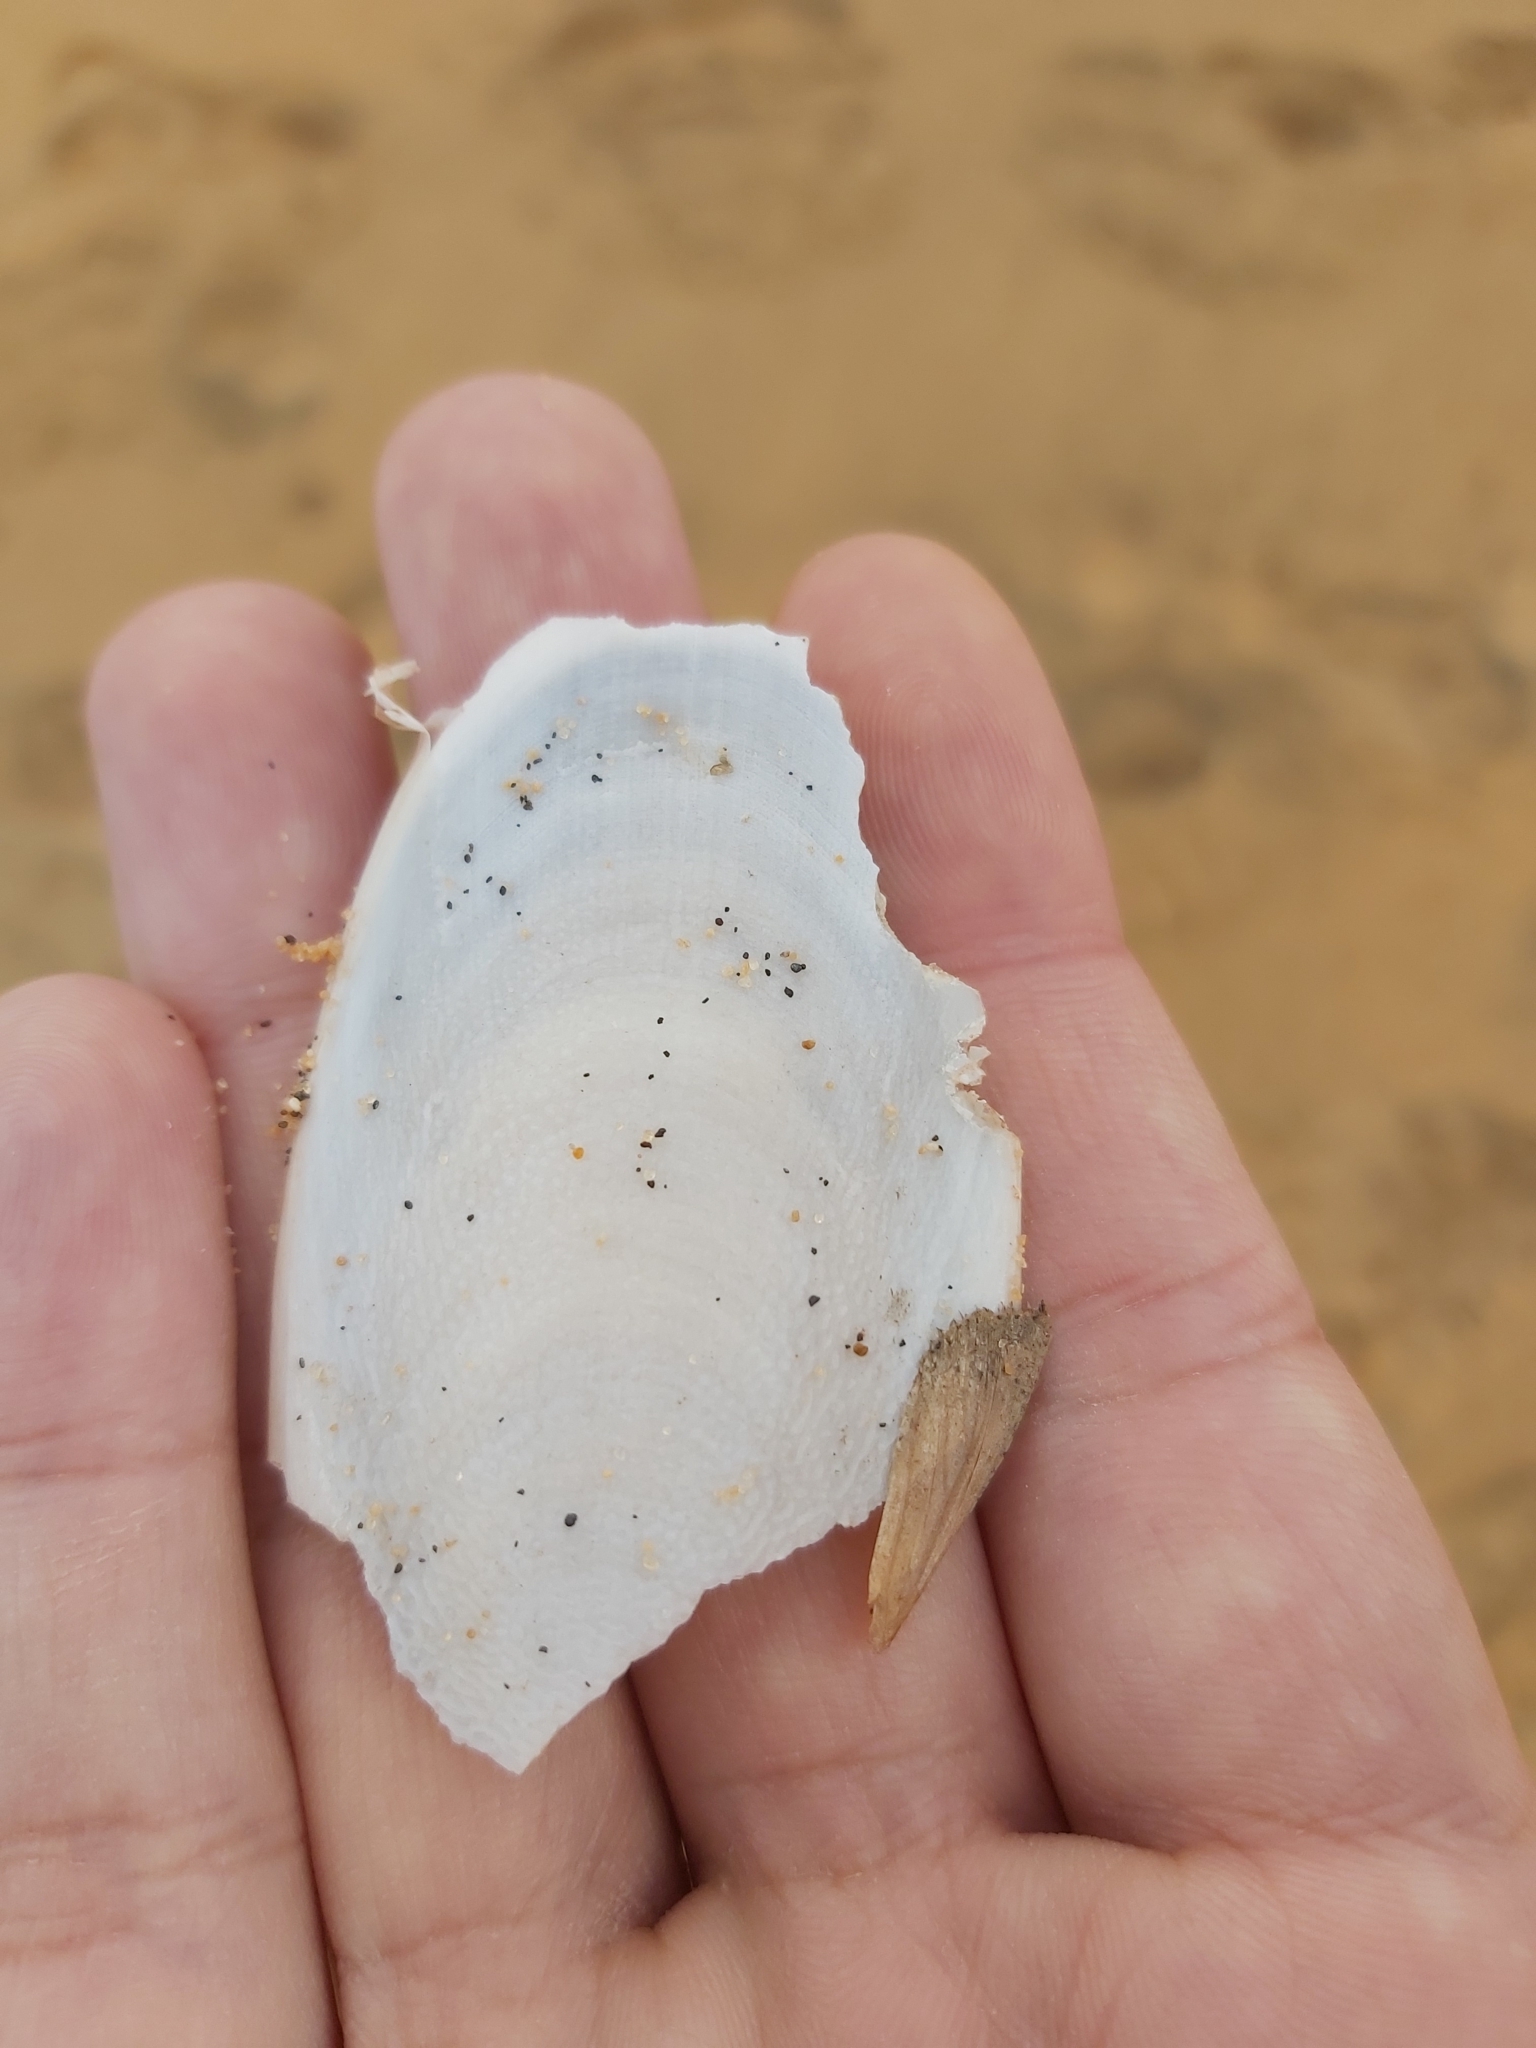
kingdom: Animalia
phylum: Mollusca
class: Cephalopoda
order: Sepiida
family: Sepiidae
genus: Ascarosepion
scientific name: Ascarosepion mestus
